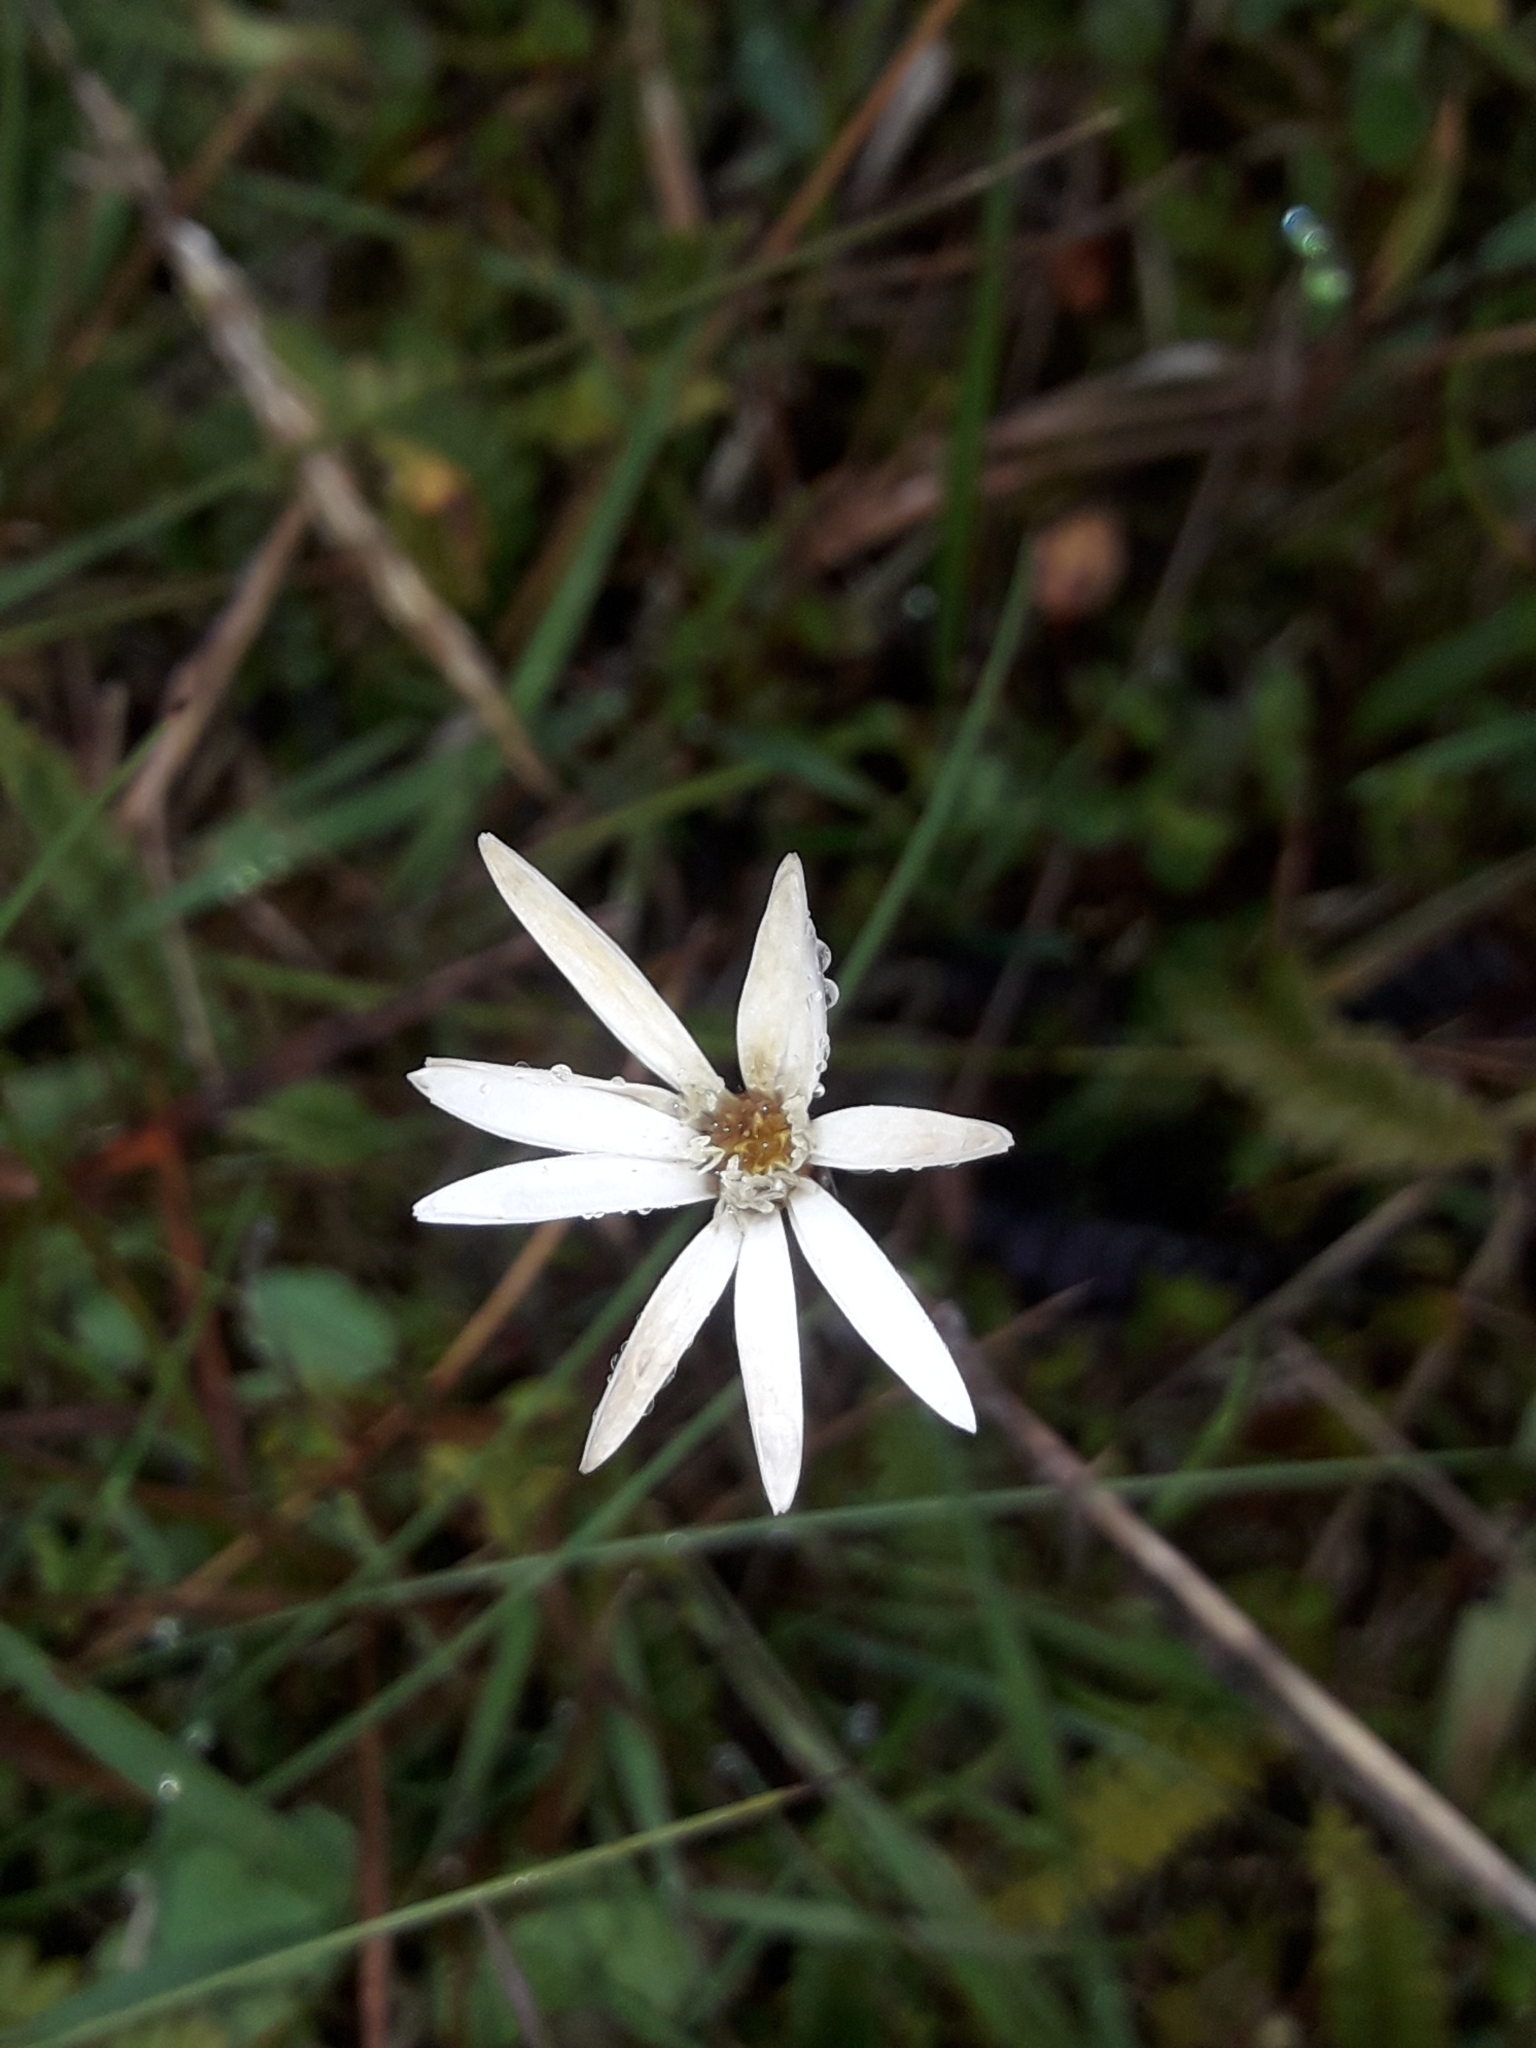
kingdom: Plantae
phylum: Tracheophyta
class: Magnoliopsida
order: Asterales
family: Asteraceae
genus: Celmisia
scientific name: Celmisia gracilenta
